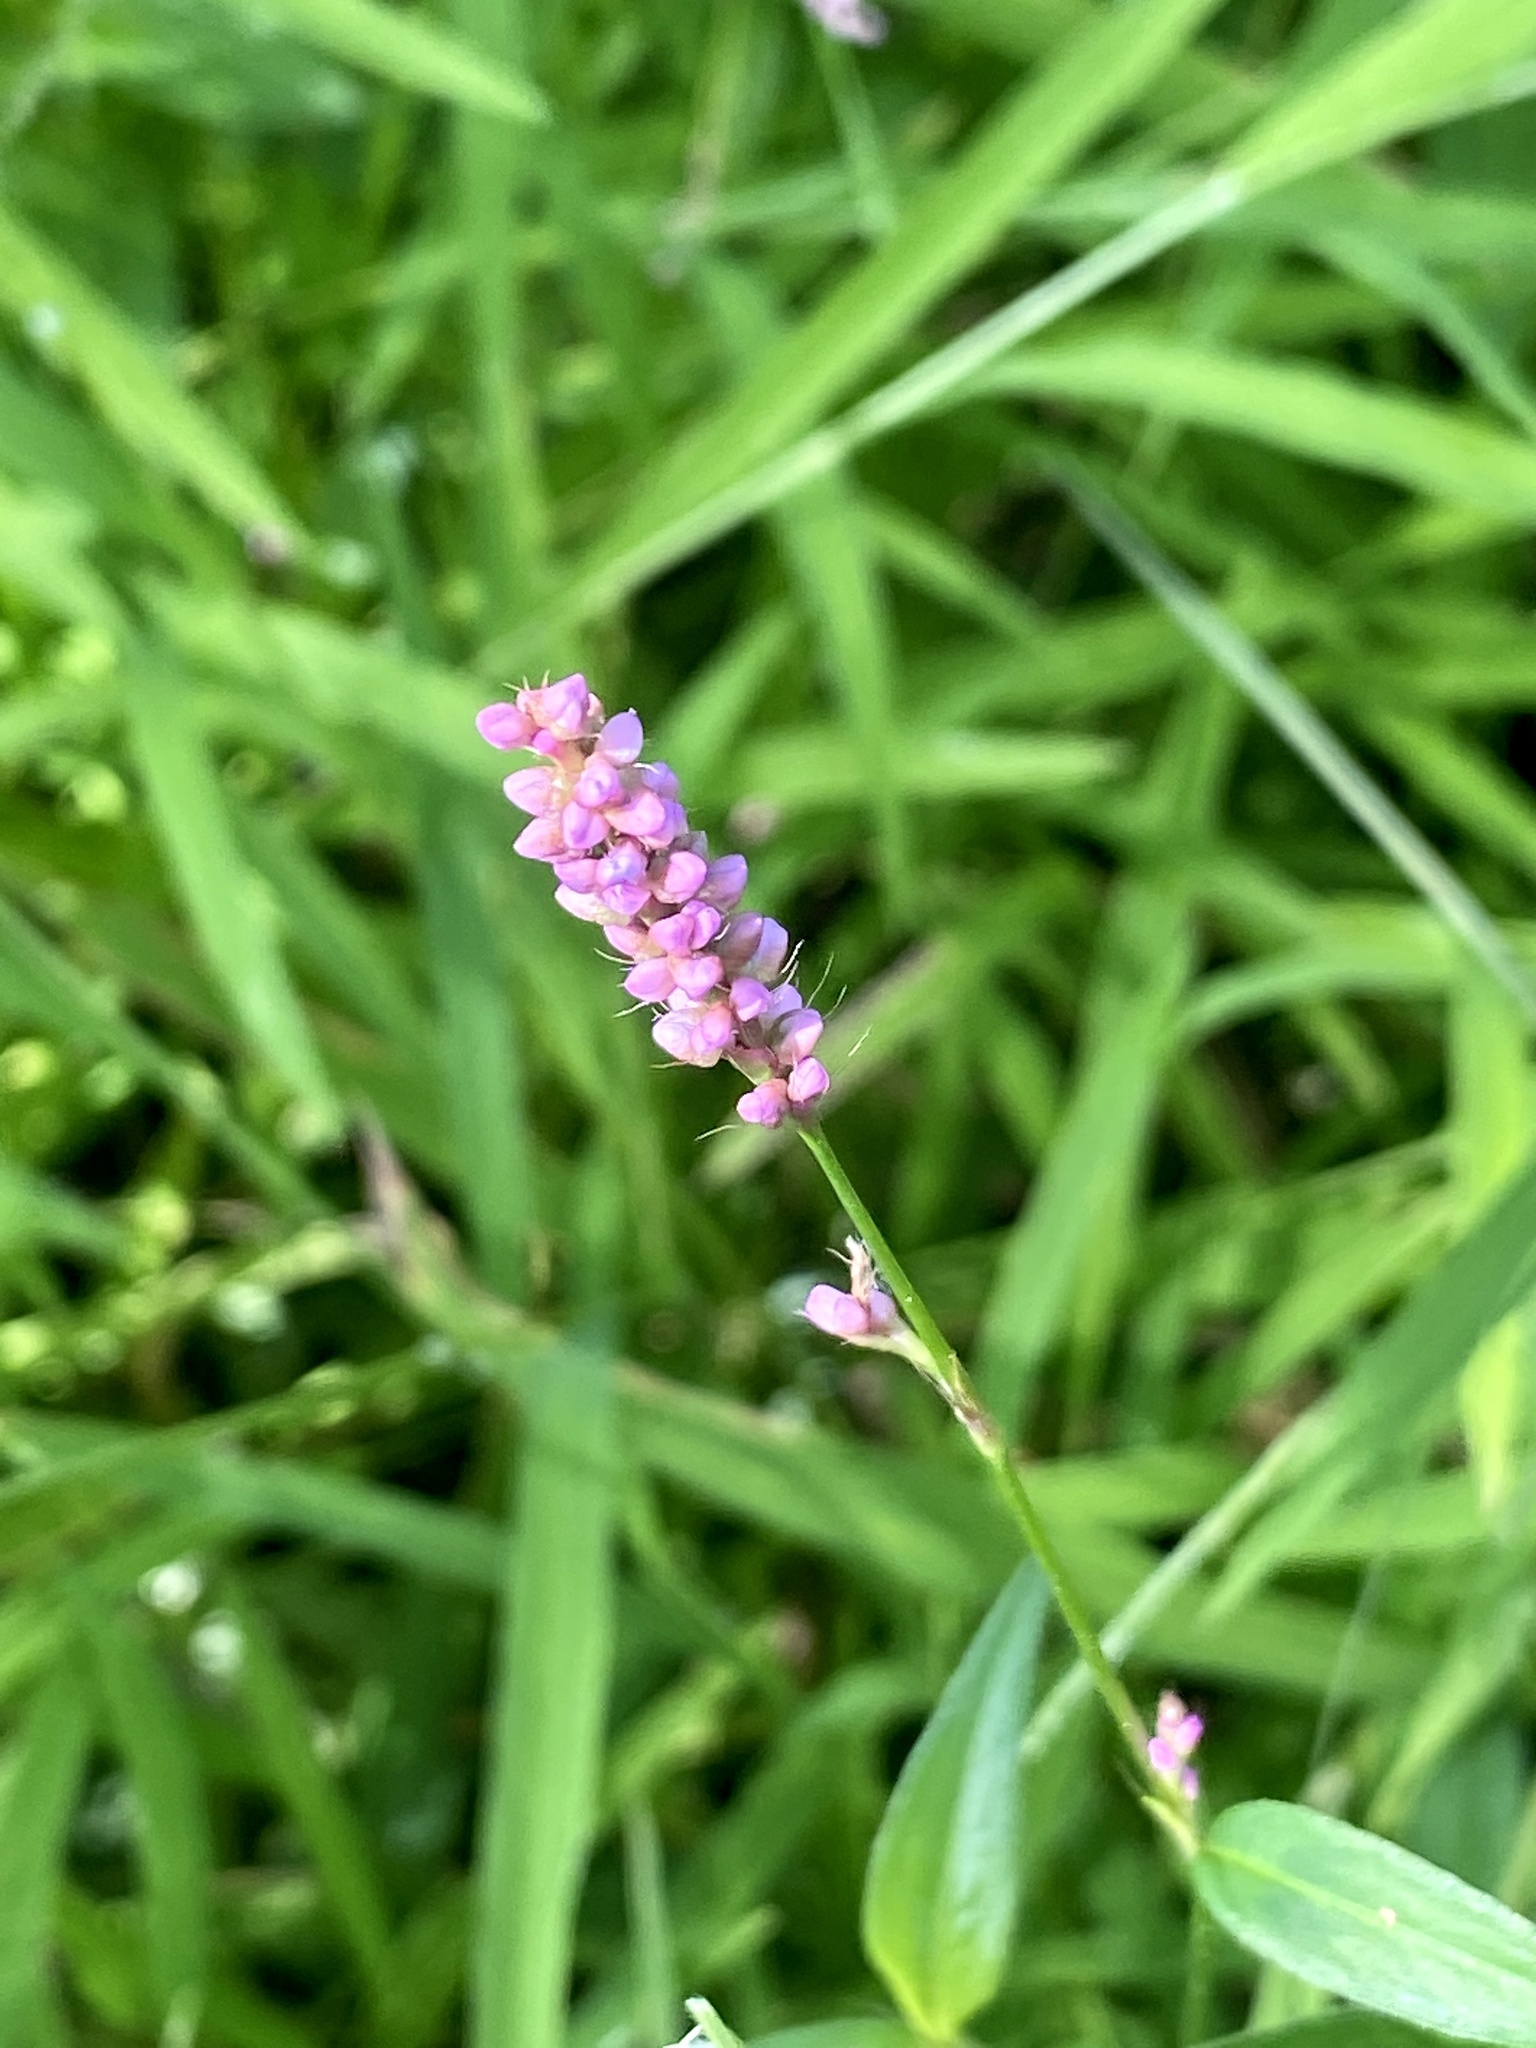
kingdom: Plantae
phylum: Tracheophyta
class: Magnoliopsida
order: Caryophyllales
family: Polygonaceae
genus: Persicaria
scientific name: Persicaria longiseta
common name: Bristly lady's-thumb
